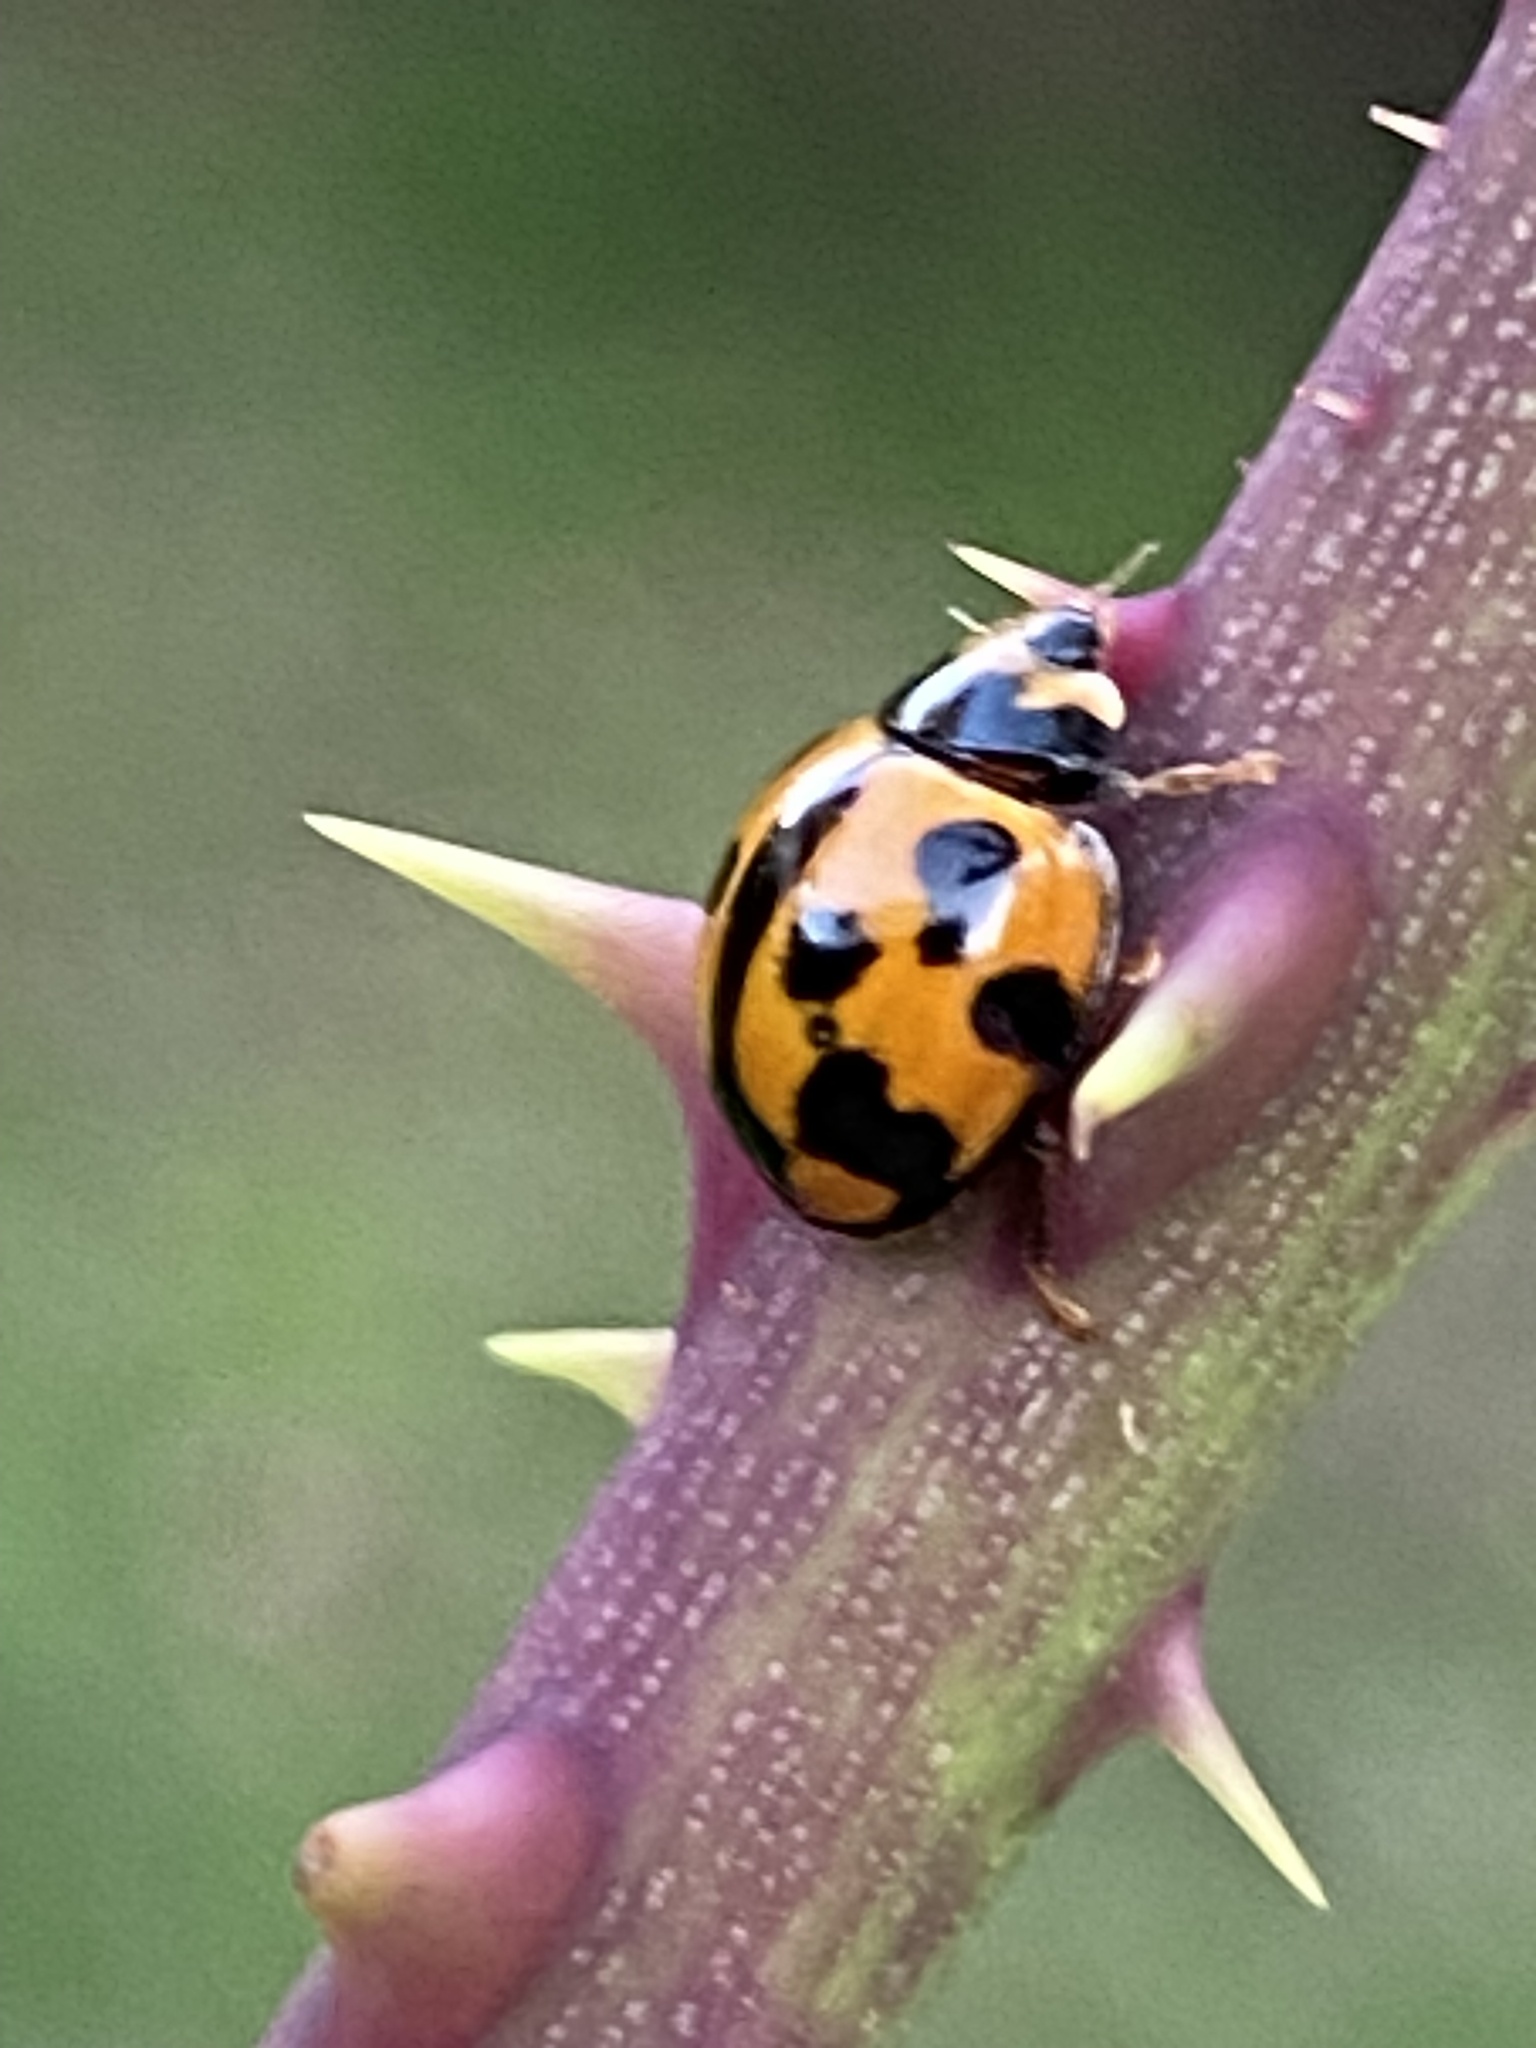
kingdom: Animalia
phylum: Arthropoda
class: Insecta
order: Coleoptera
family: Coccinellidae
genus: Coelophora
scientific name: Coelophora inaequalis
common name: Common australian lady beetle
